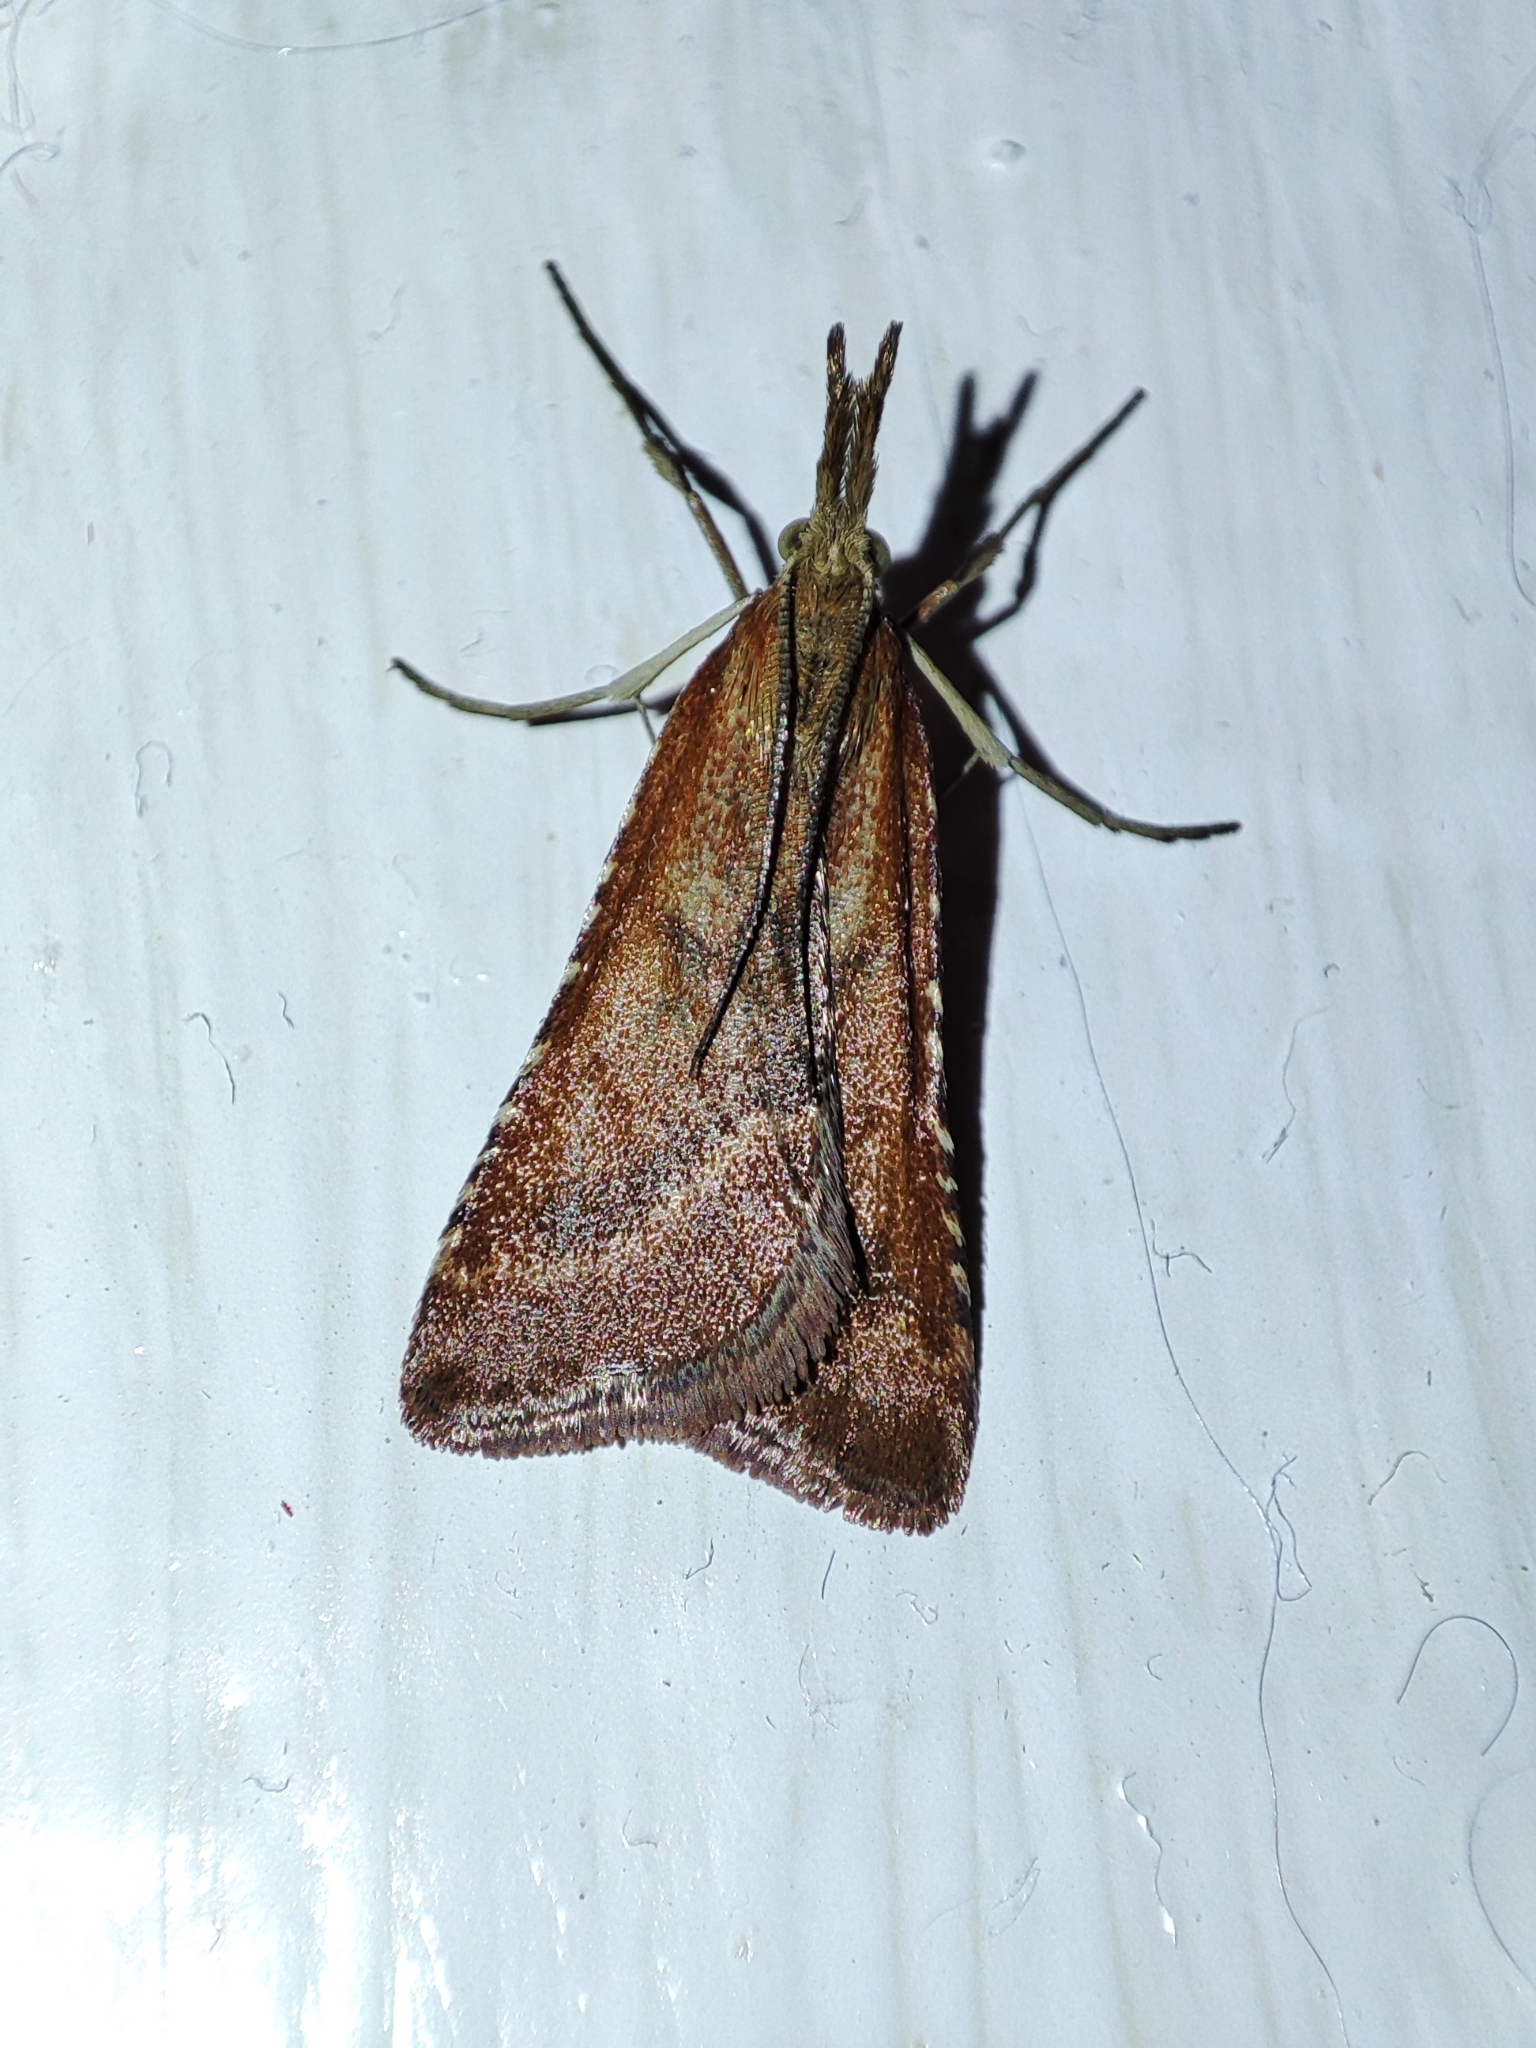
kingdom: Animalia
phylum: Arthropoda
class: Insecta
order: Lepidoptera
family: Pyralidae
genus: Synaphe
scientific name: Synaphe punctalis
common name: Long-legged tabby
